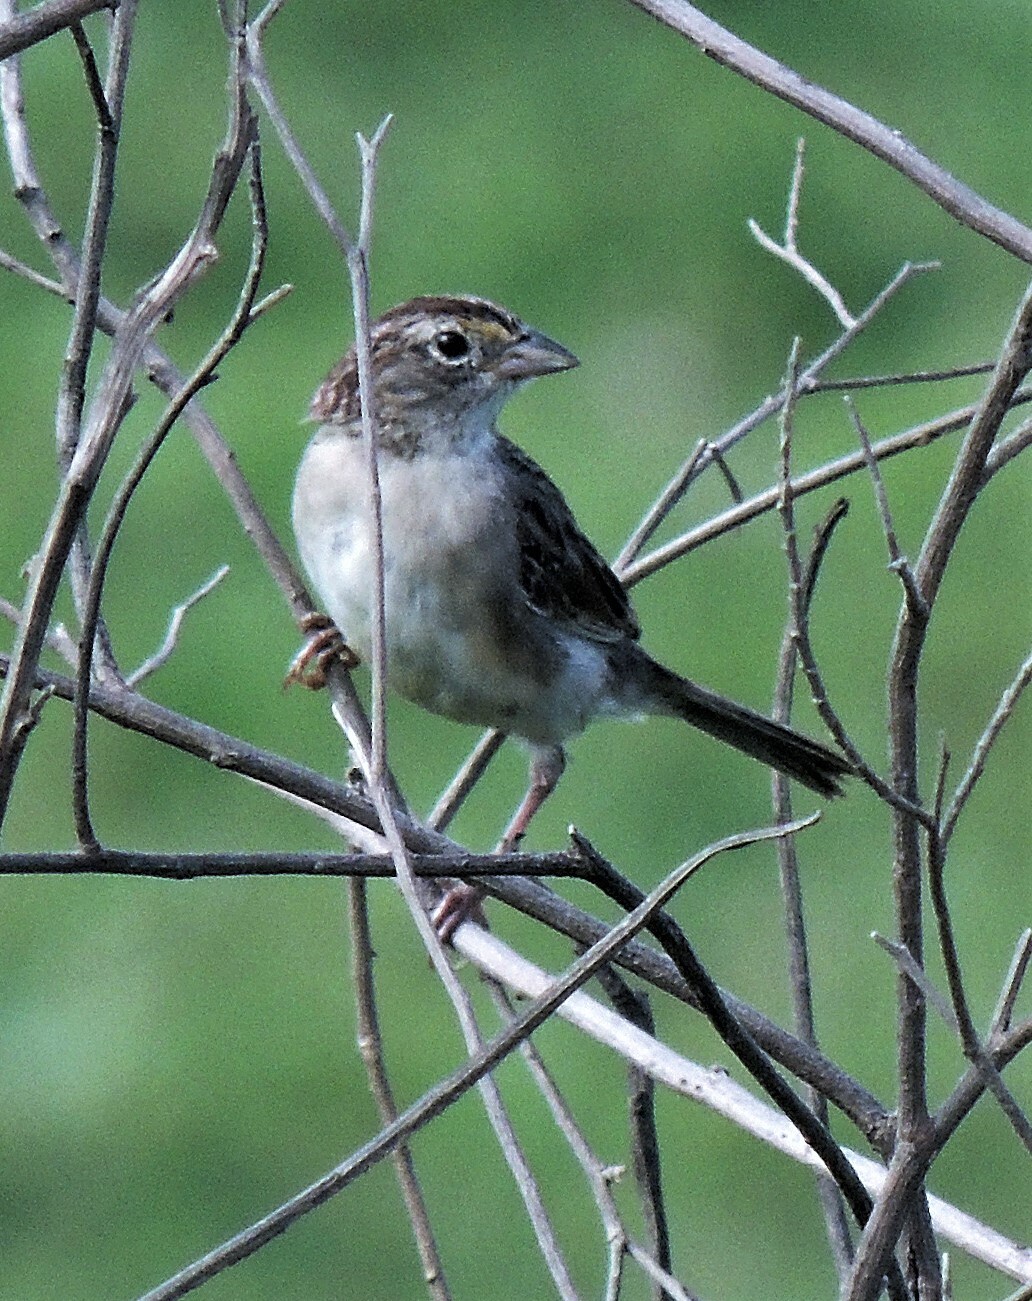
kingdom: Animalia
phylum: Chordata
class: Aves
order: Passeriformes
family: Passerellidae
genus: Ammodramus
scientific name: Ammodramus humeralis
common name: Grassland sparrow
